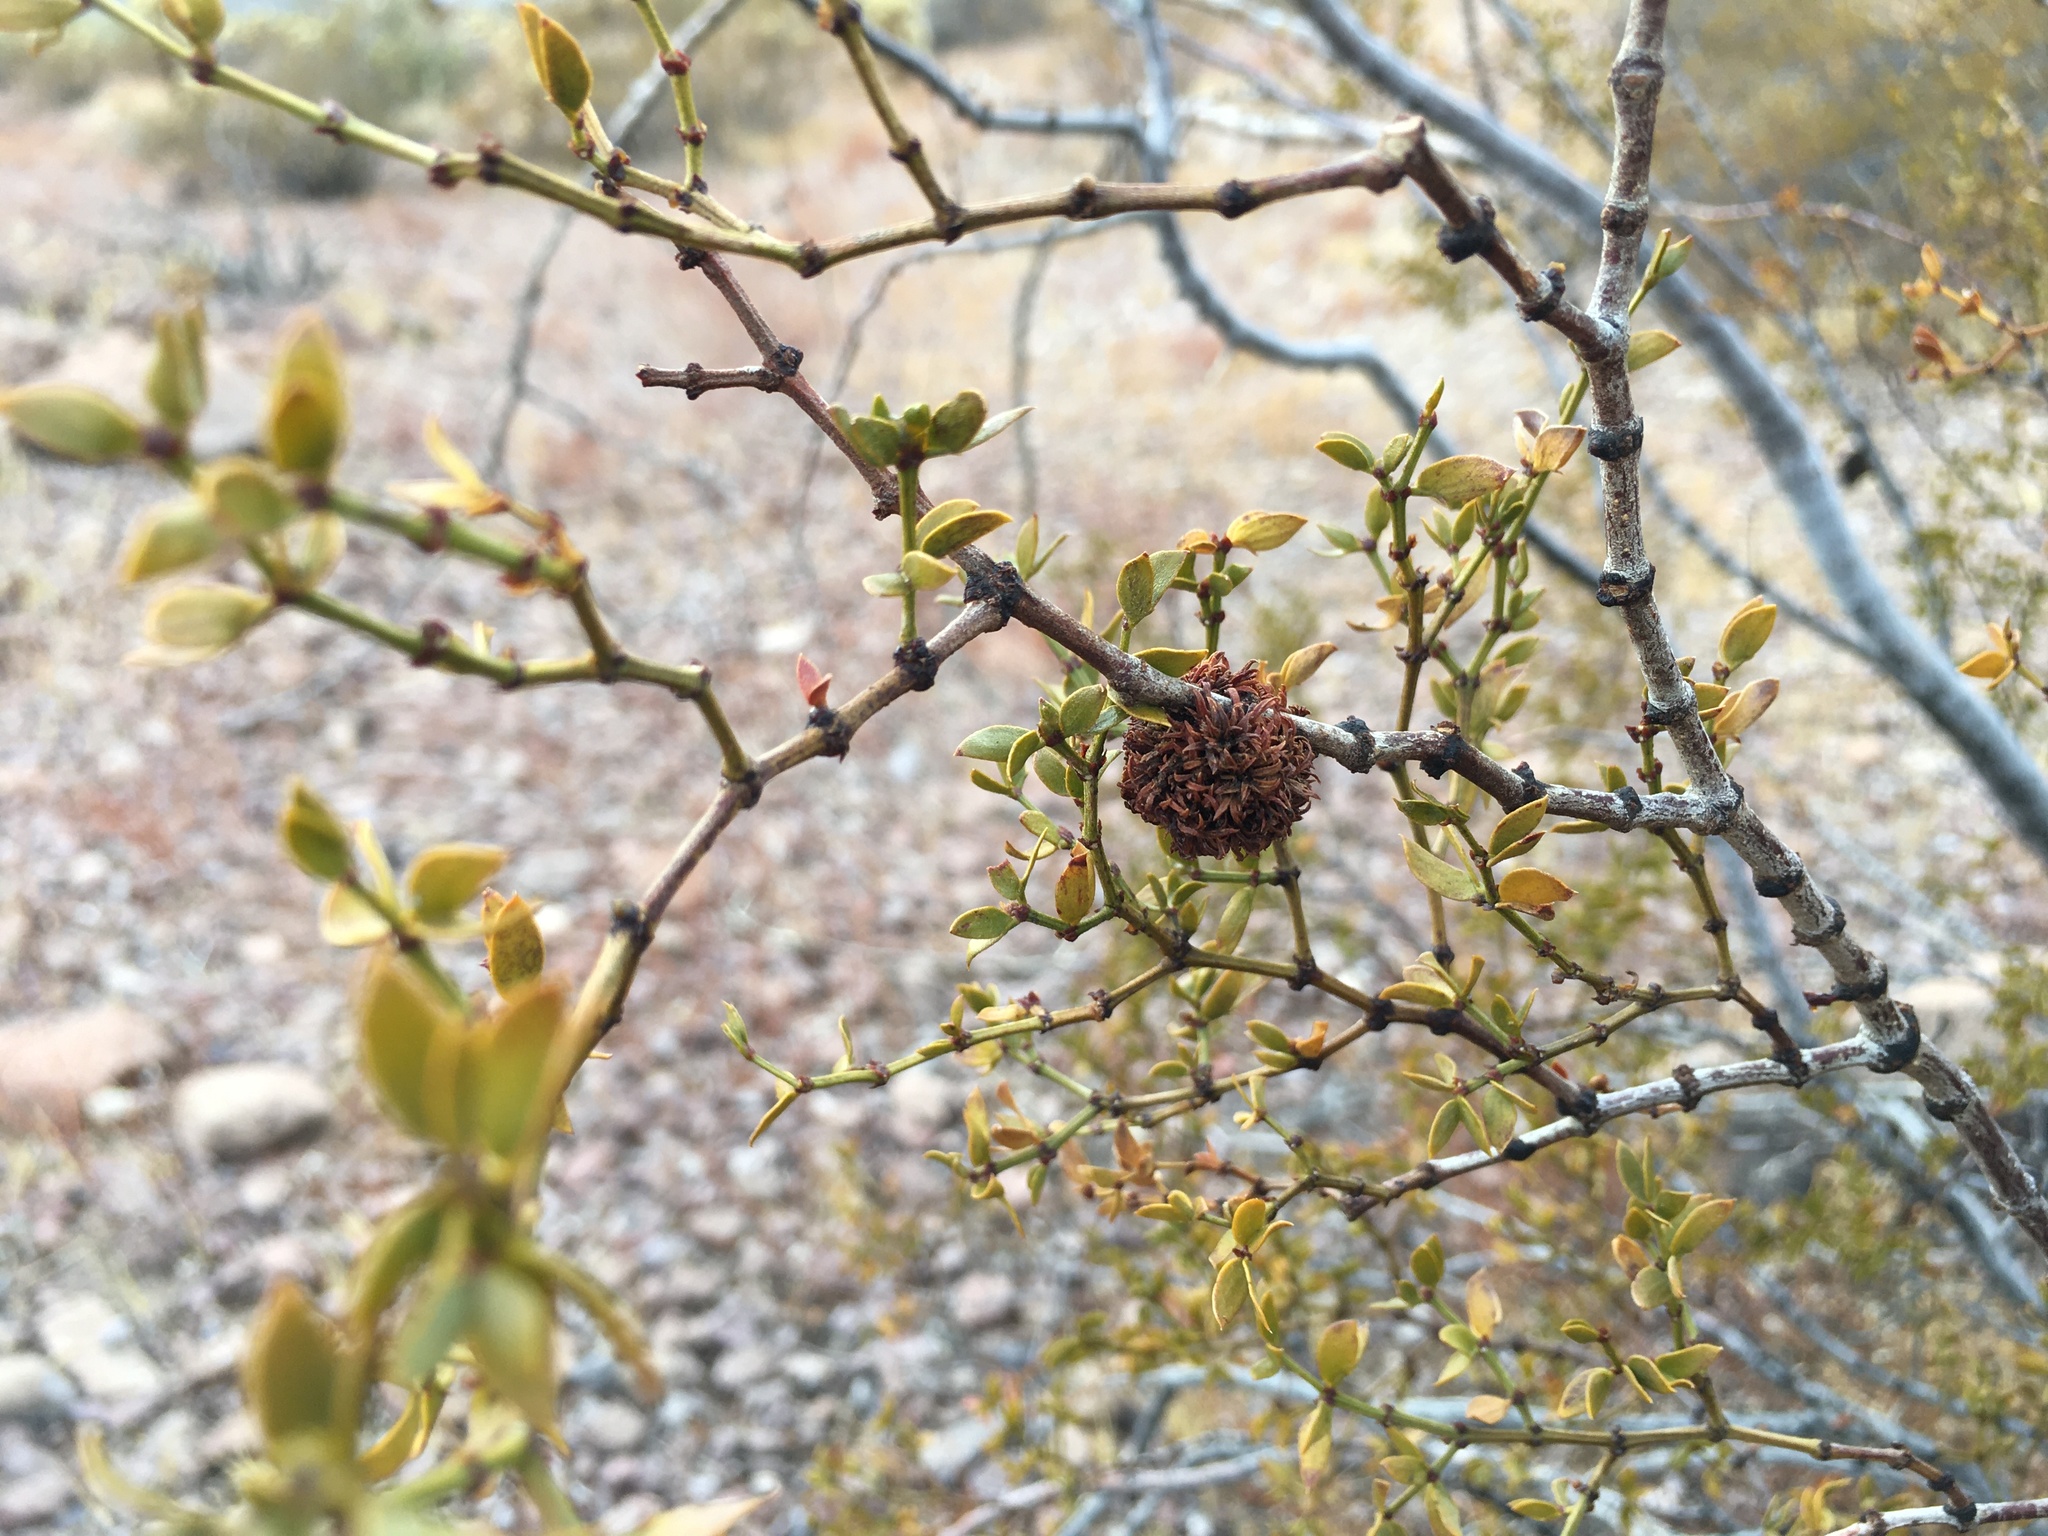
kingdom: Animalia
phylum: Arthropoda
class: Insecta
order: Diptera
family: Cecidomyiidae
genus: Asphondylia
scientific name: Asphondylia auripila
